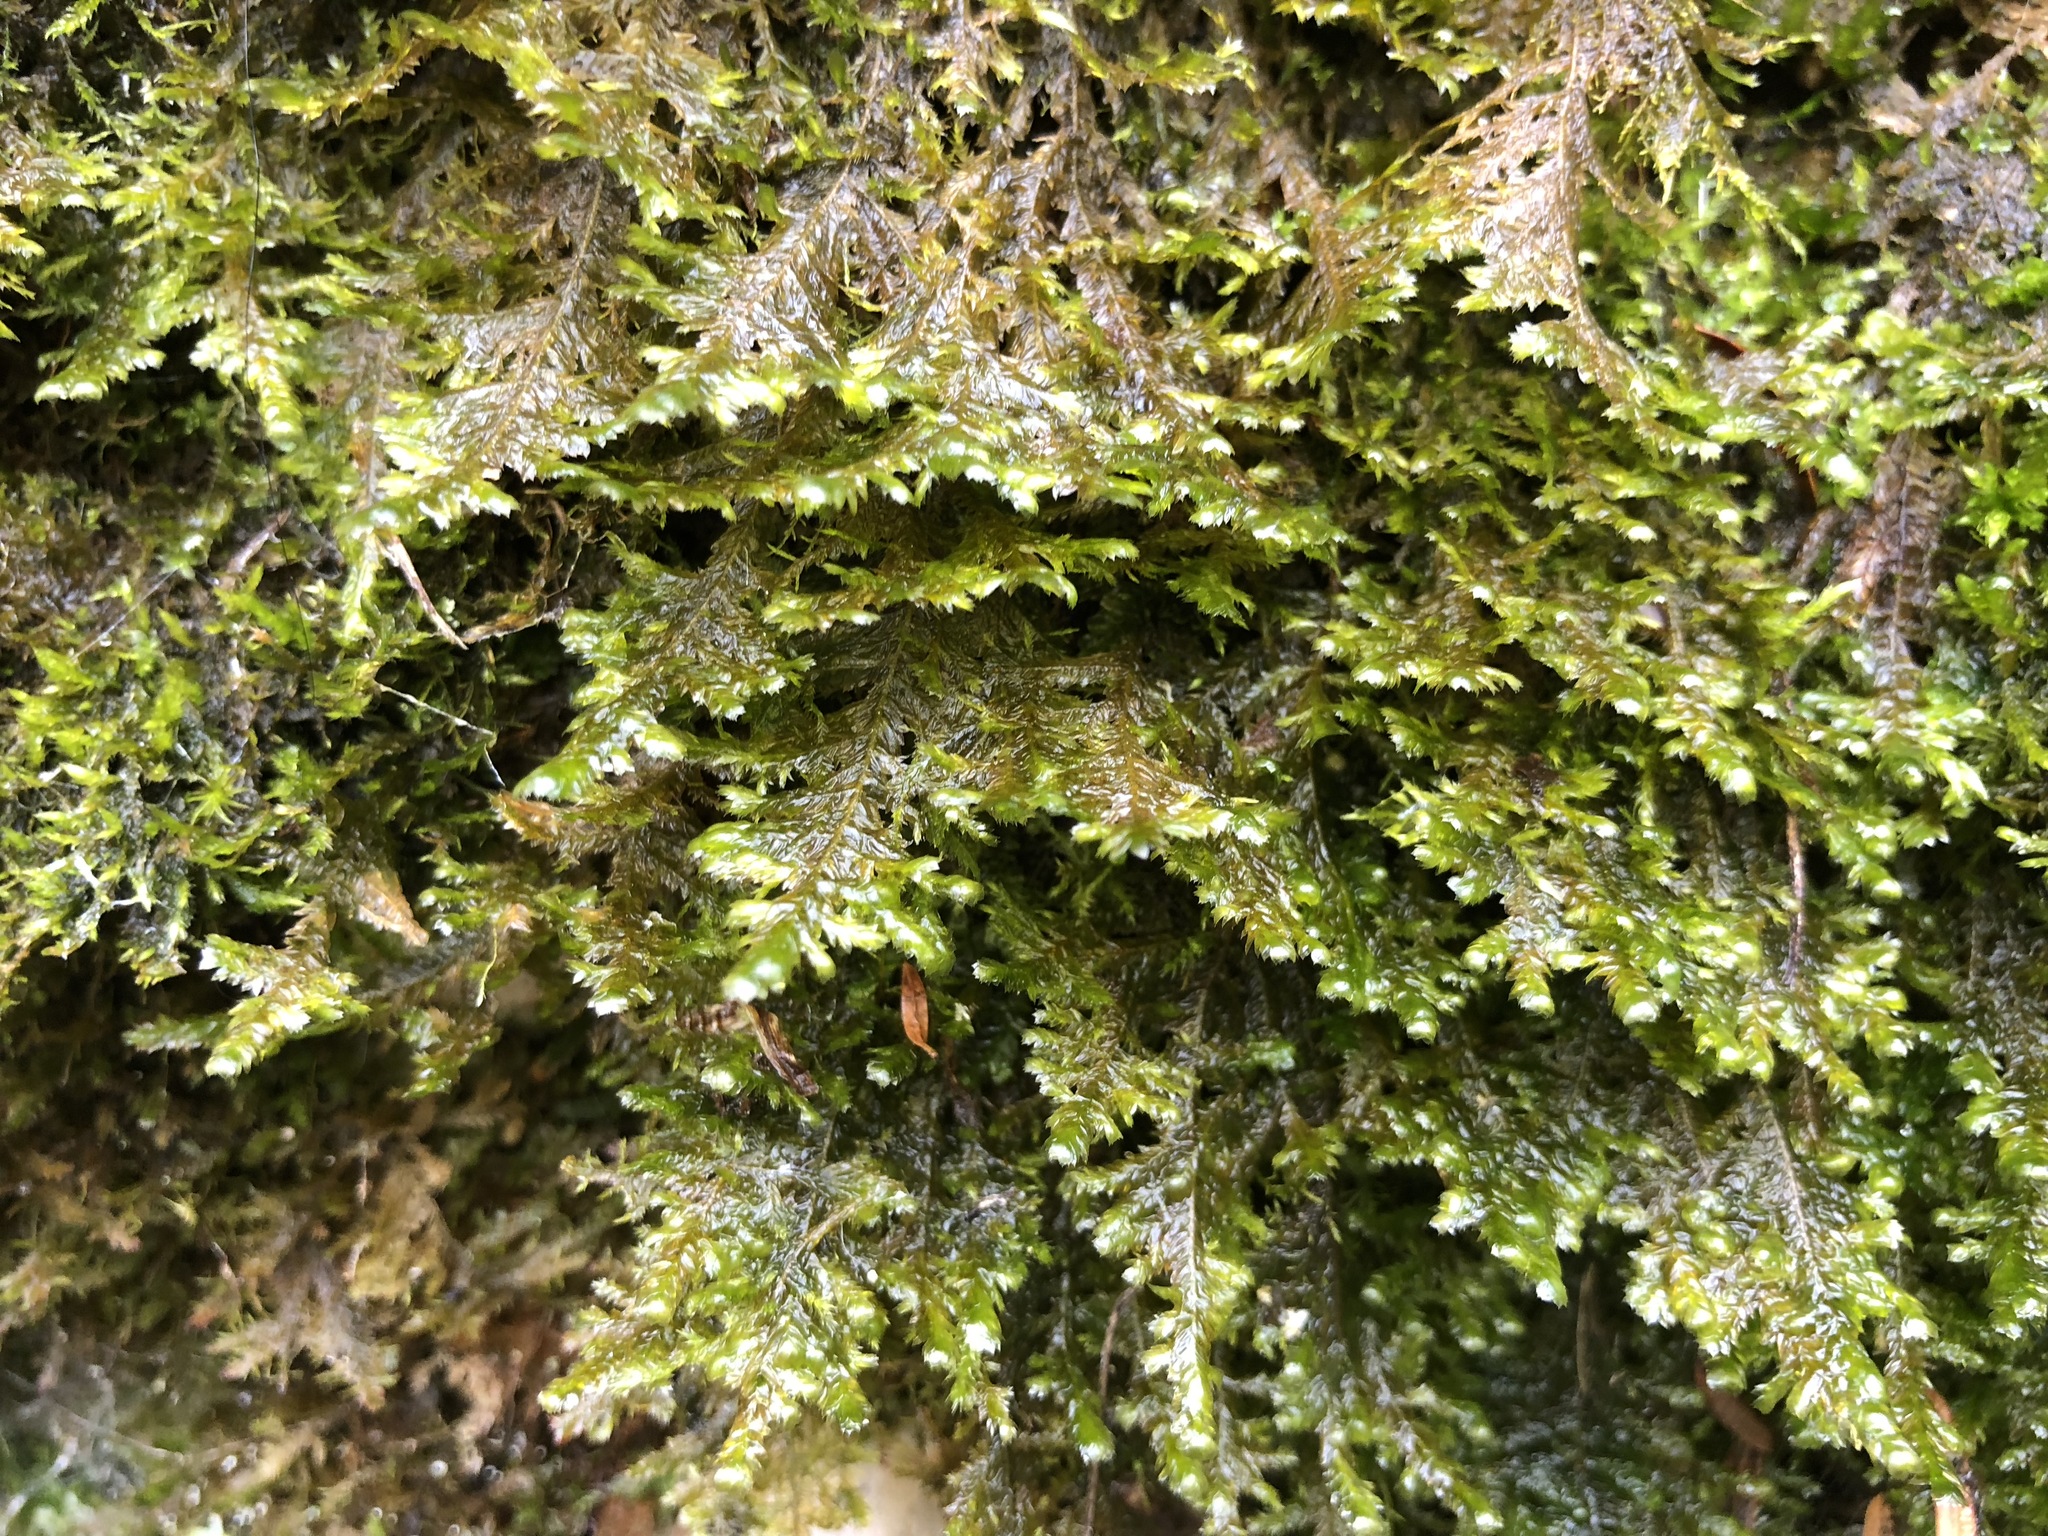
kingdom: Plantae
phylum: Bryophyta
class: Bryopsida
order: Hypnales
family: Neckeraceae
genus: Alleniella
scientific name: Alleniella complanata
